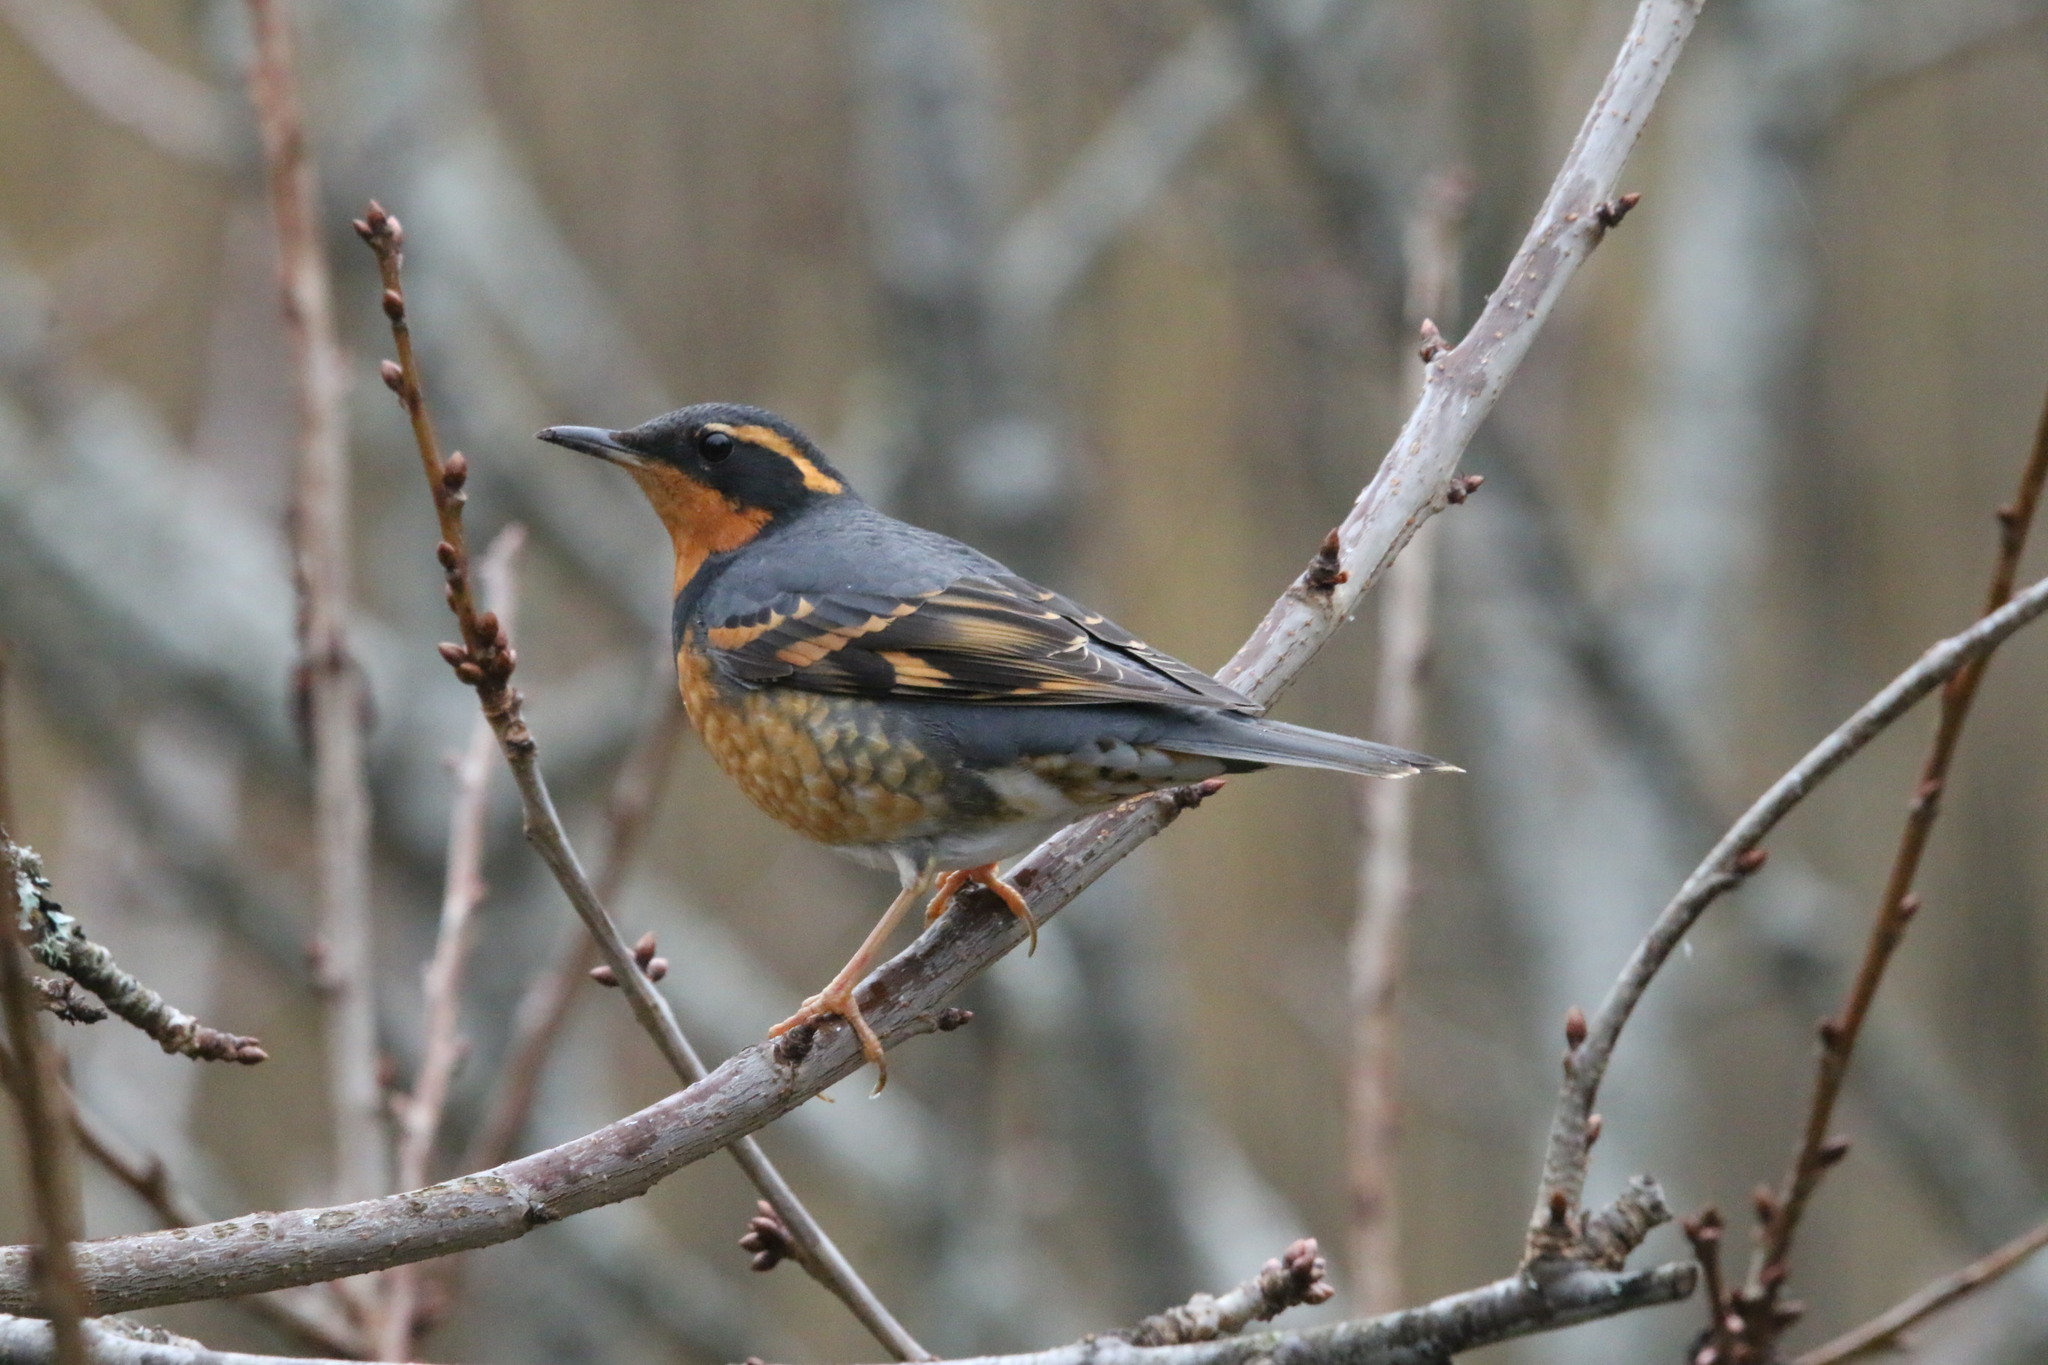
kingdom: Animalia
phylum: Chordata
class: Aves
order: Passeriformes
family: Turdidae
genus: Ixoreus
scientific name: Ixoreus naevius
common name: Varied thrush
